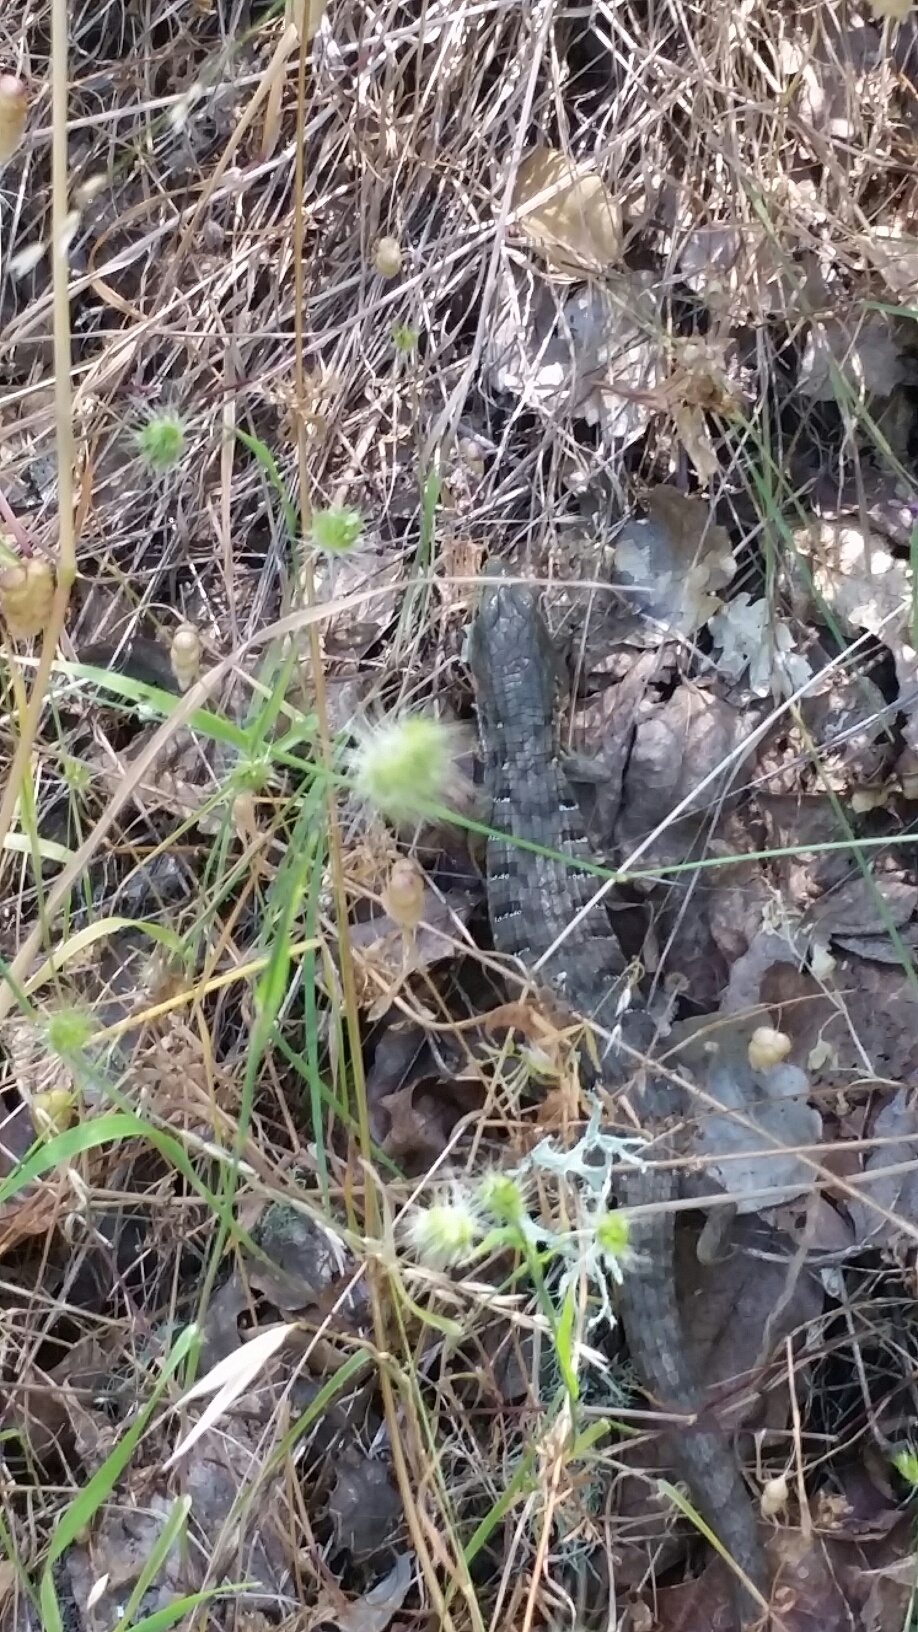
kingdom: Animalia
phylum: Chordata
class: Squamata
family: Anguidae
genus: Elgaria
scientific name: Elgaria multicarinata
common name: Southern alligator lizard
